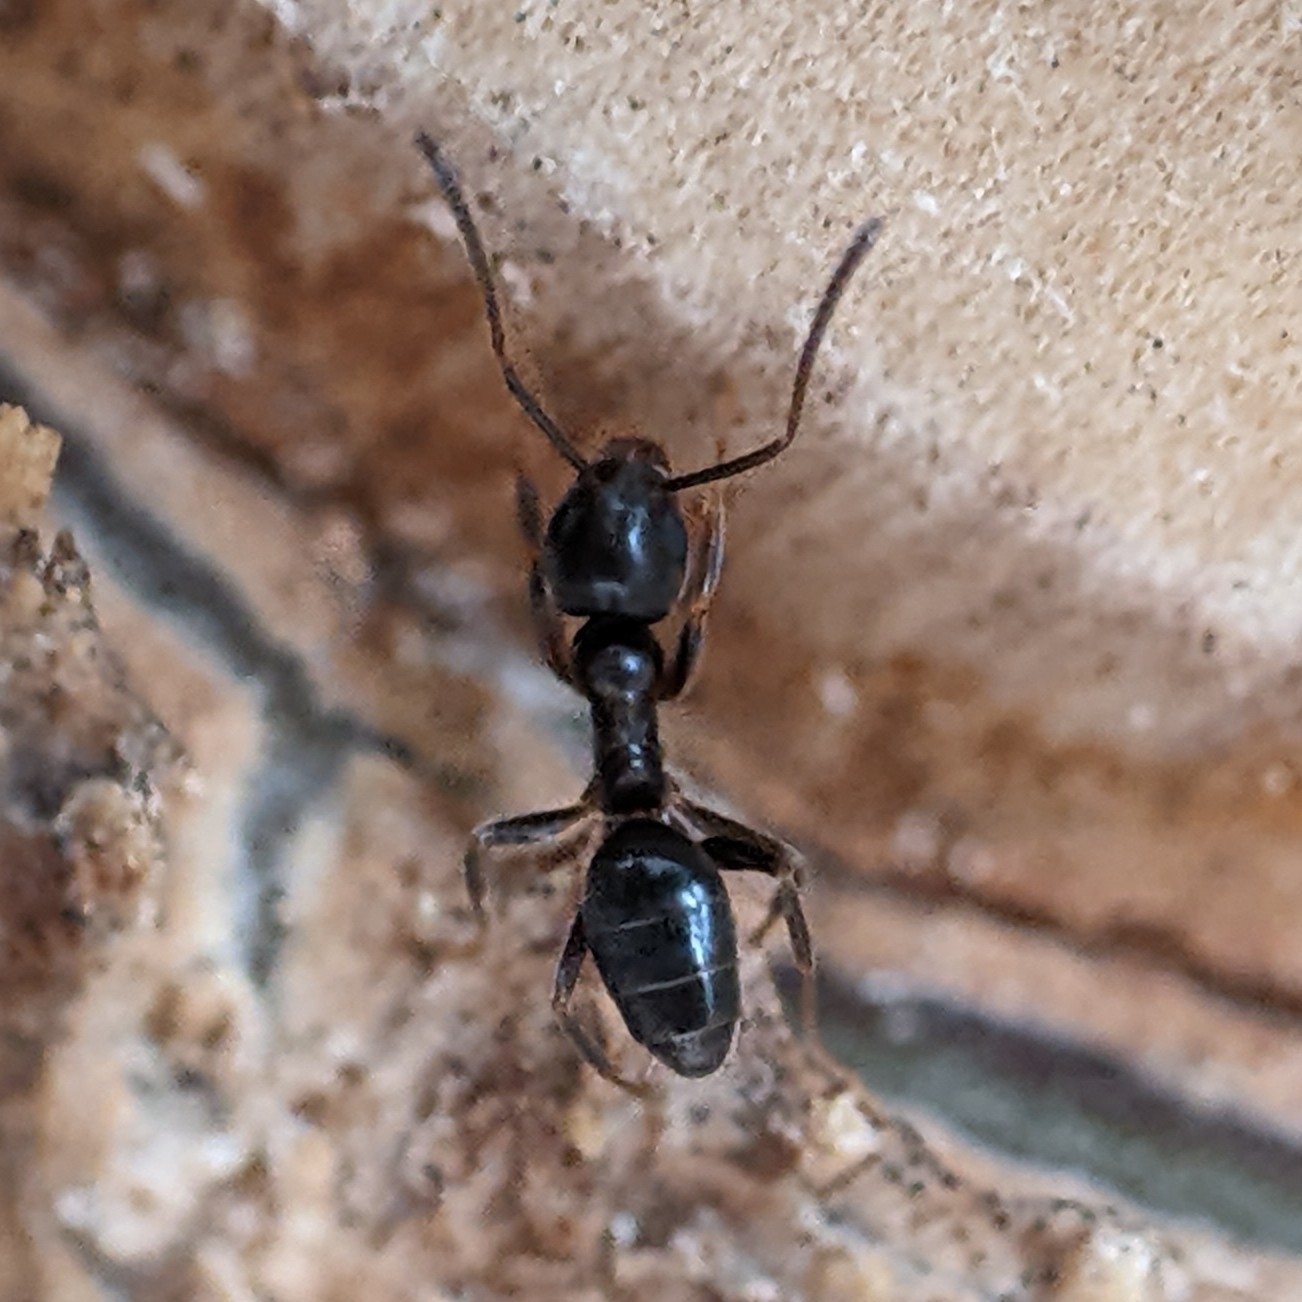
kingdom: Animalia
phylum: Arthropoda
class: Insecta
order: Hymenoptera
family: Formicidae
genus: Tapinoma
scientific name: Tapinoma sessile
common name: Odorous house ant
